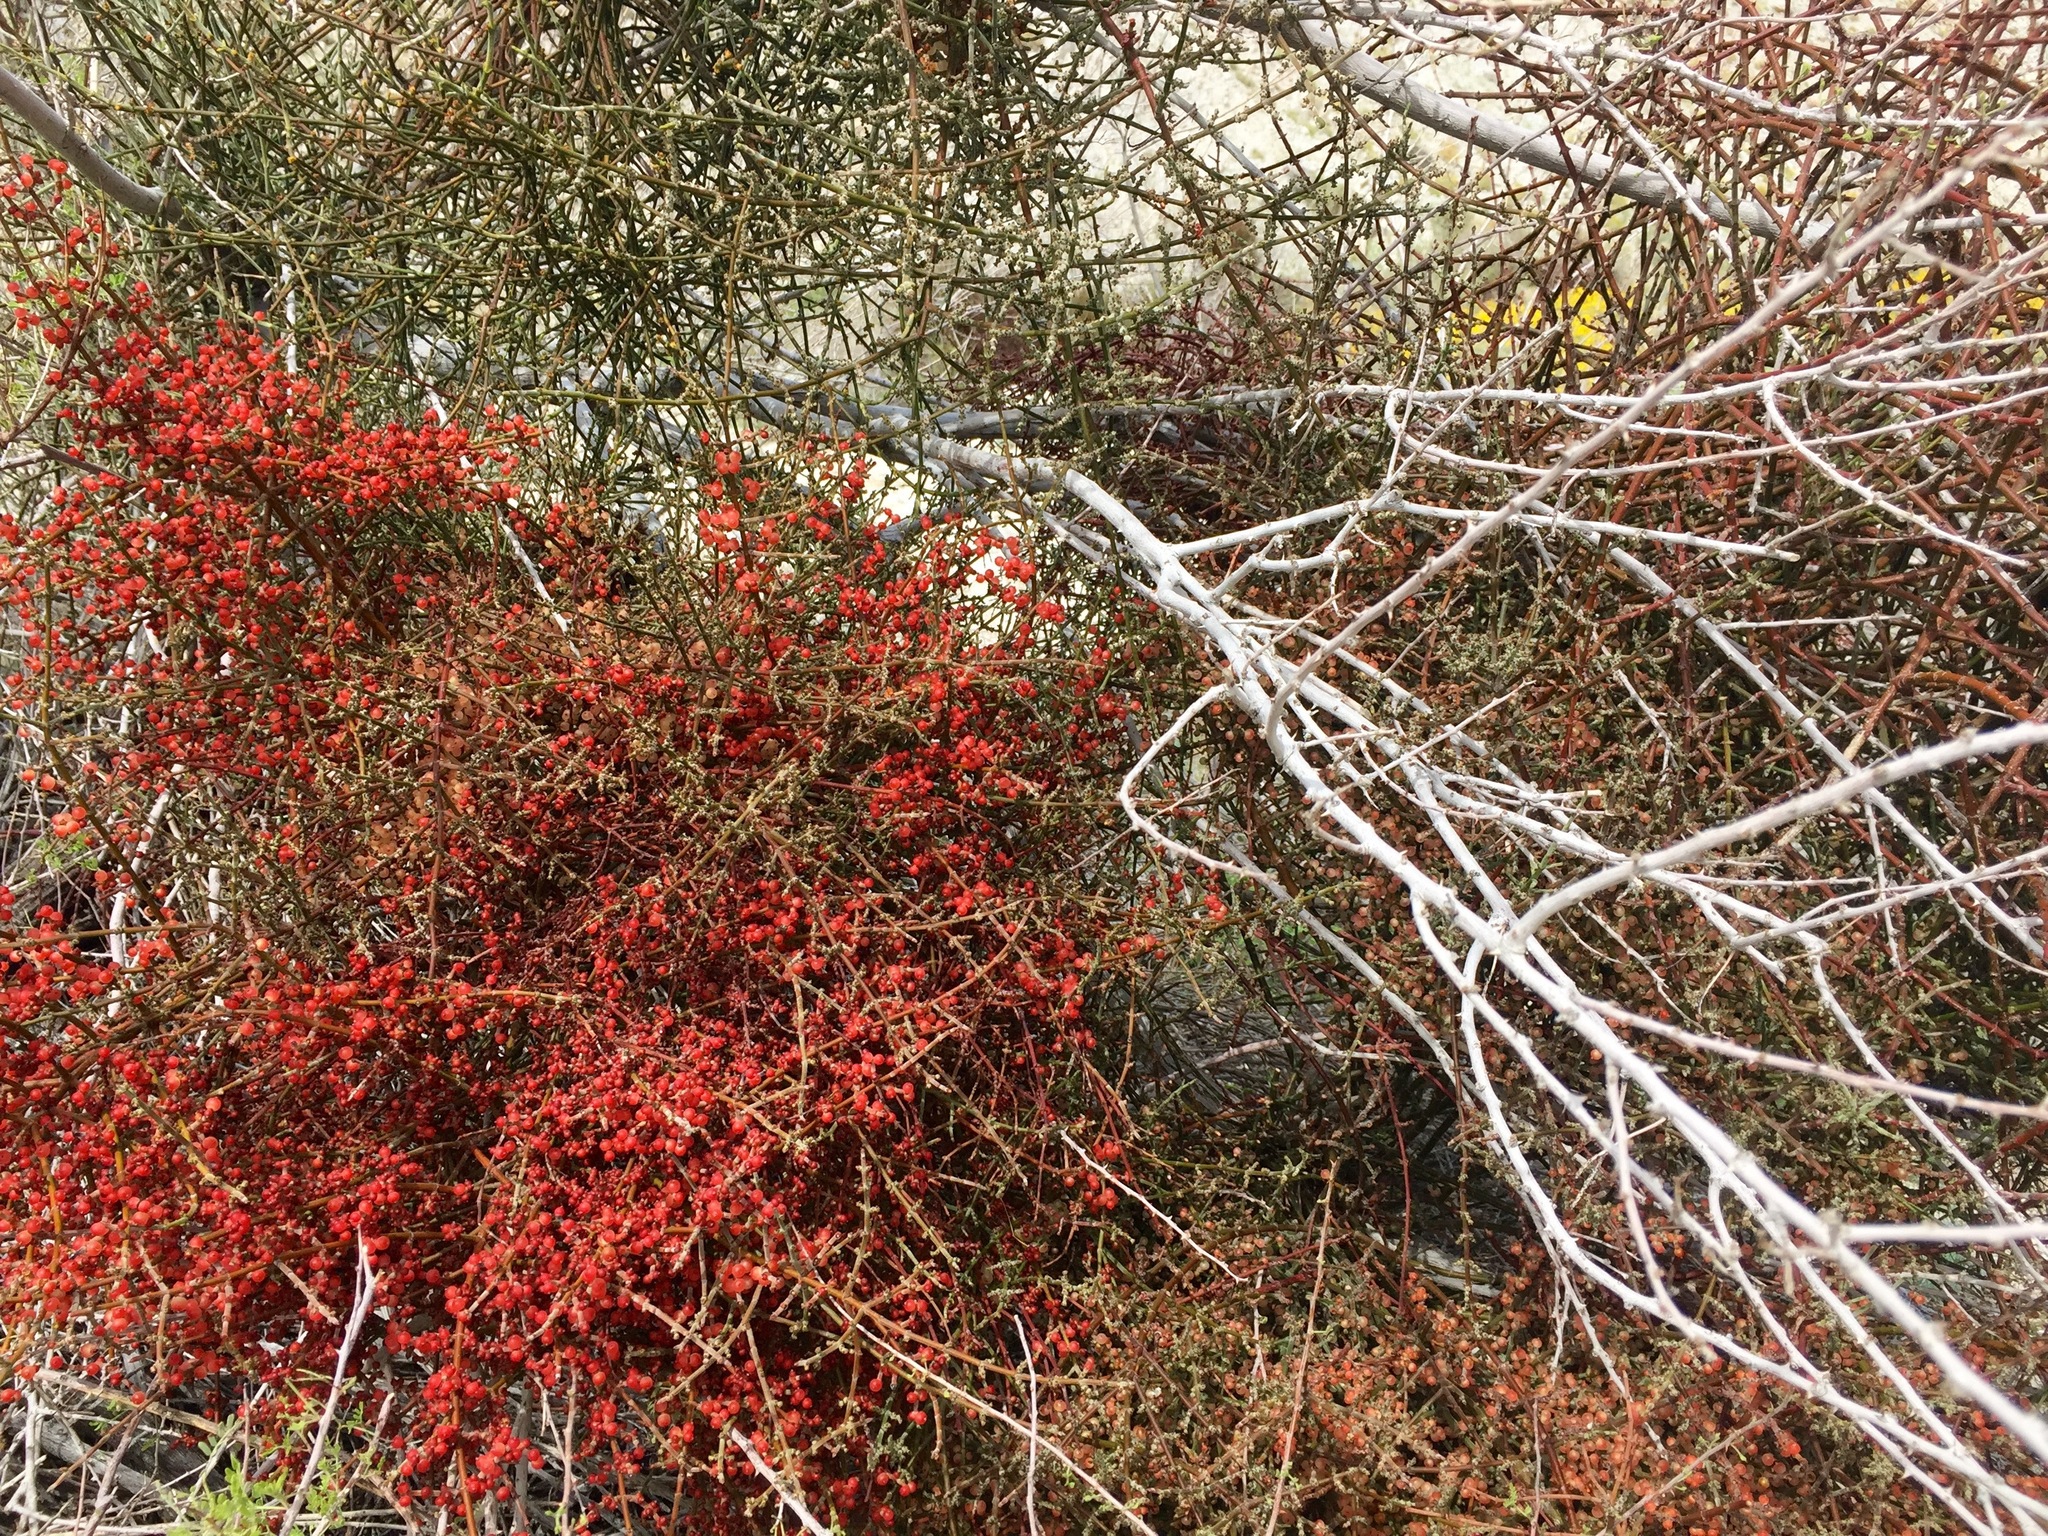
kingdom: Plantae
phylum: Tracheophyta
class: Magnoliopsida
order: Santalales
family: Viscaceae
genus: Phoradendron
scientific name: Phoradendron californicum
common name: Acacia mistletoe
